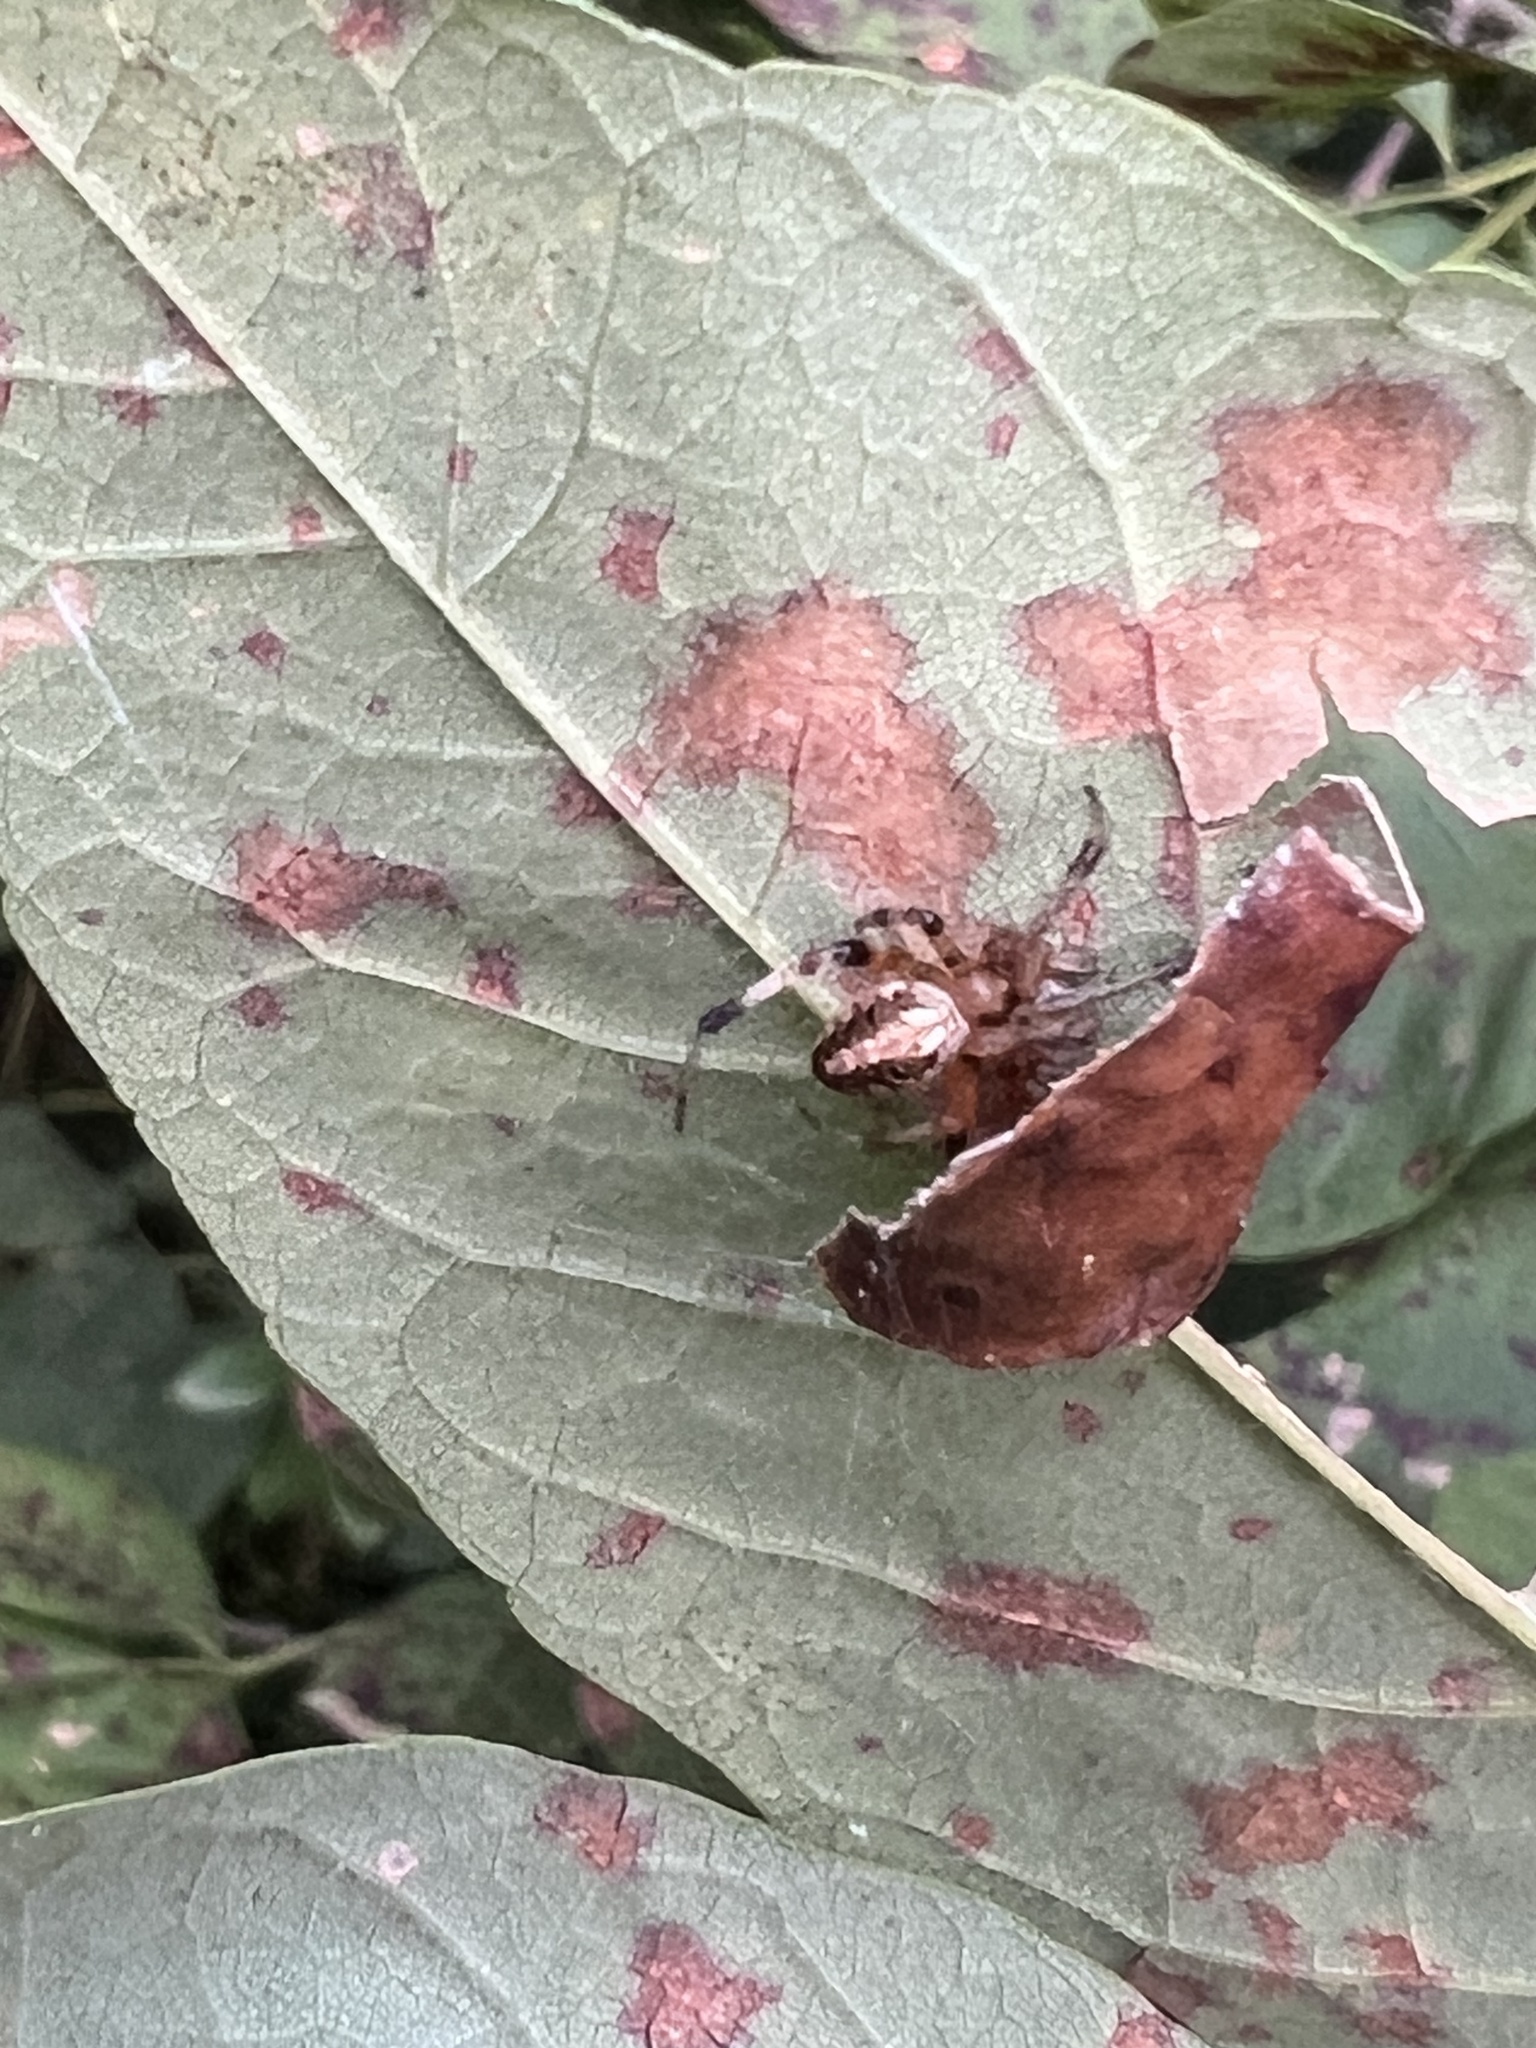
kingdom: Animalia
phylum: Arthropoda
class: Arachnida
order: Araneae
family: Araneidae
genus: Neoscona
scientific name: Neoscona arabesca
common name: Orb weavers
